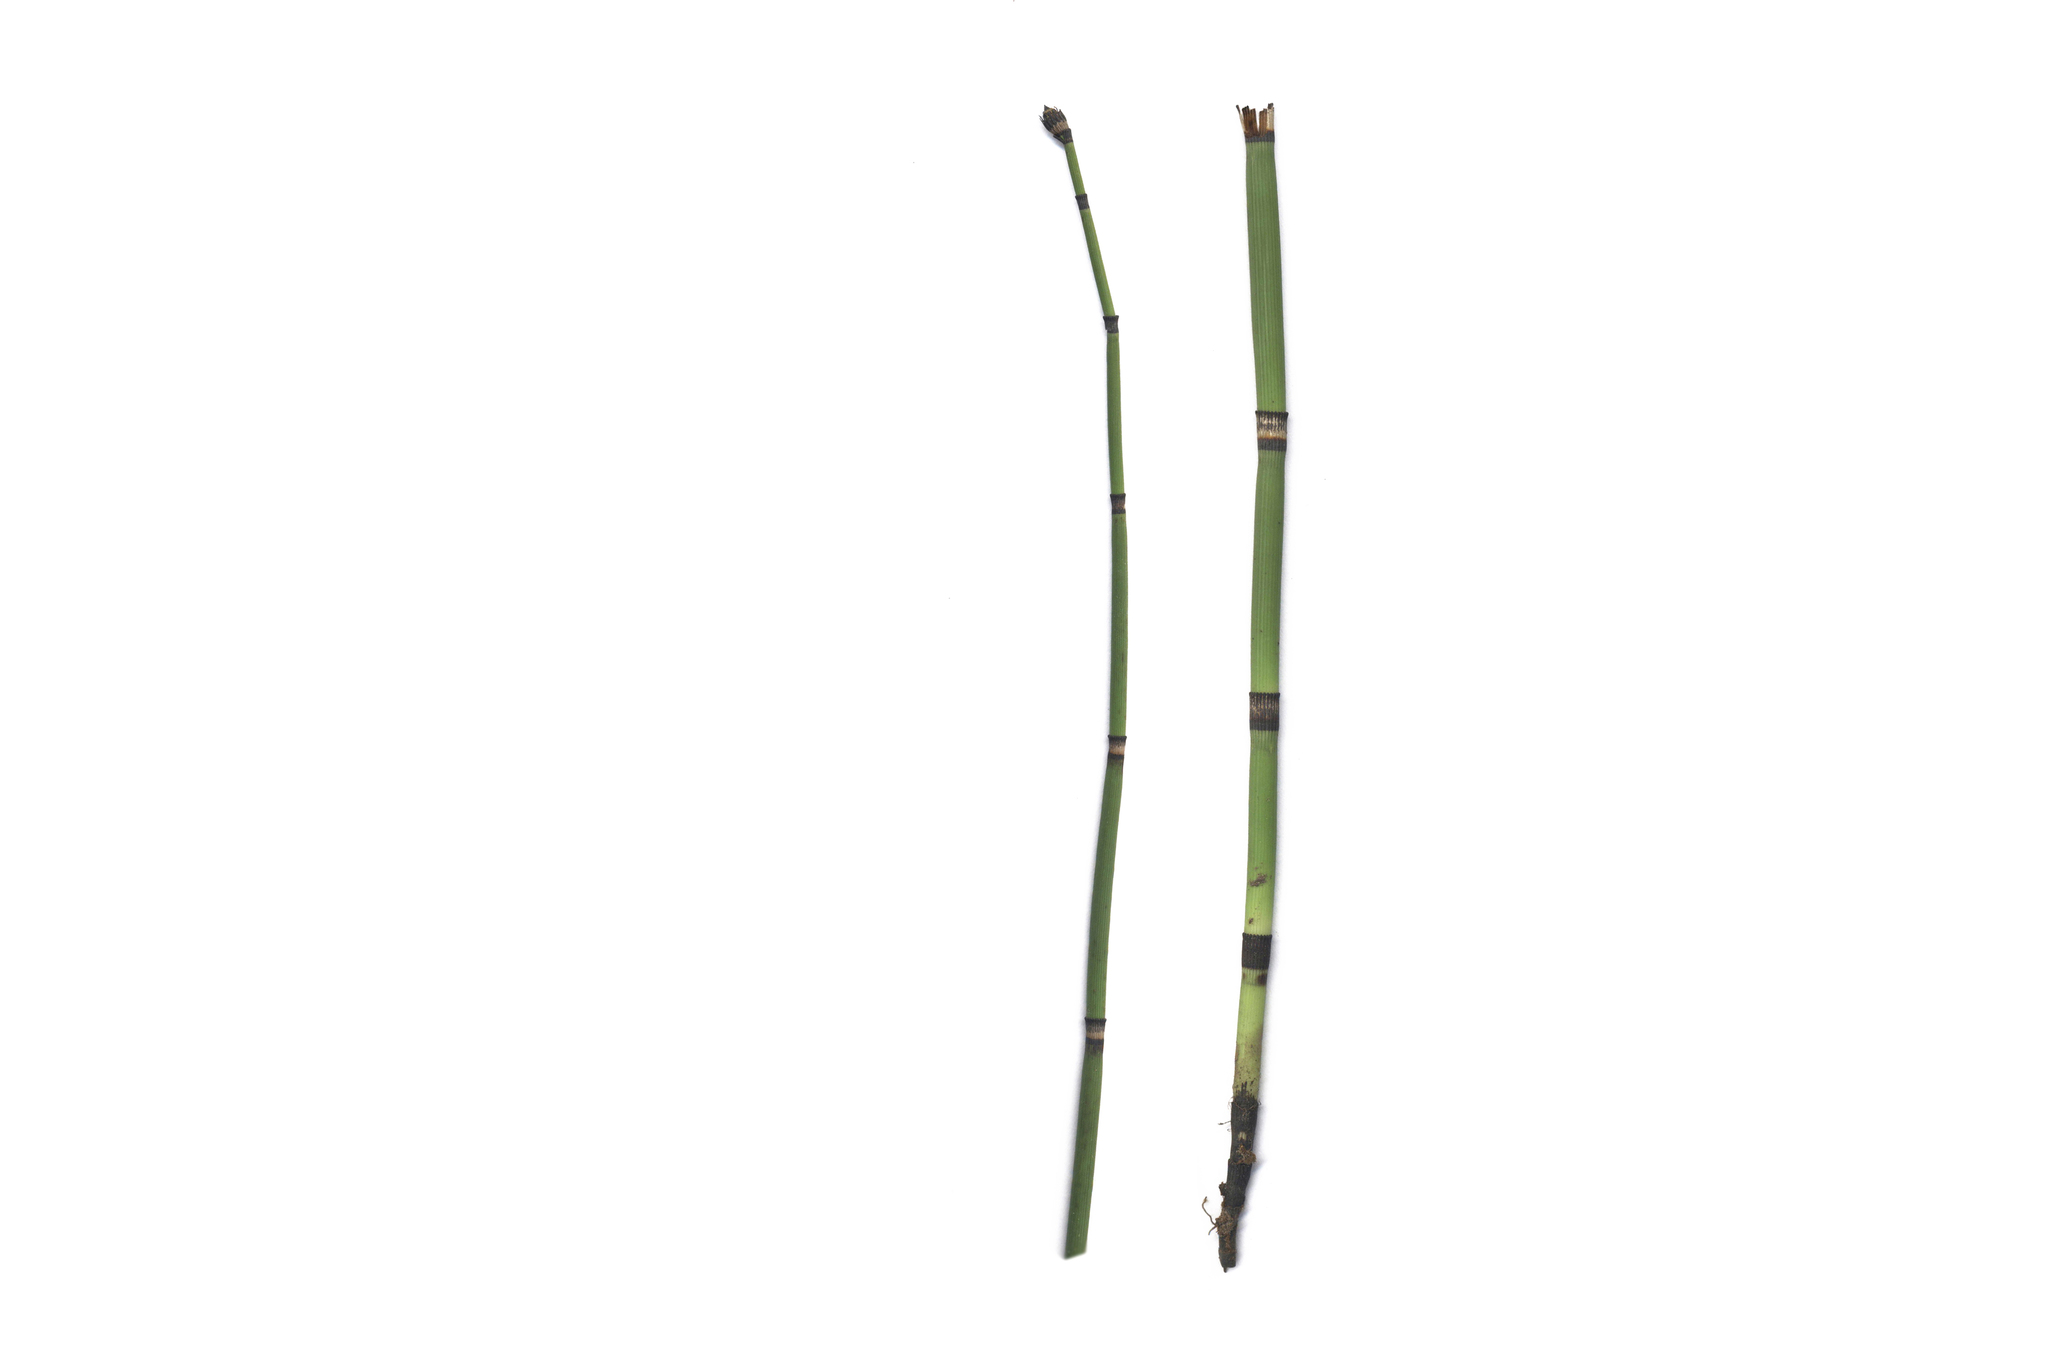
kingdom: Plantae
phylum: Tracheophyta
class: Polypodiopsida
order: Equisetales
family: Equisetaceae
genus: Equisetum
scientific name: Equisetum hyemale
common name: Rough horsetail
